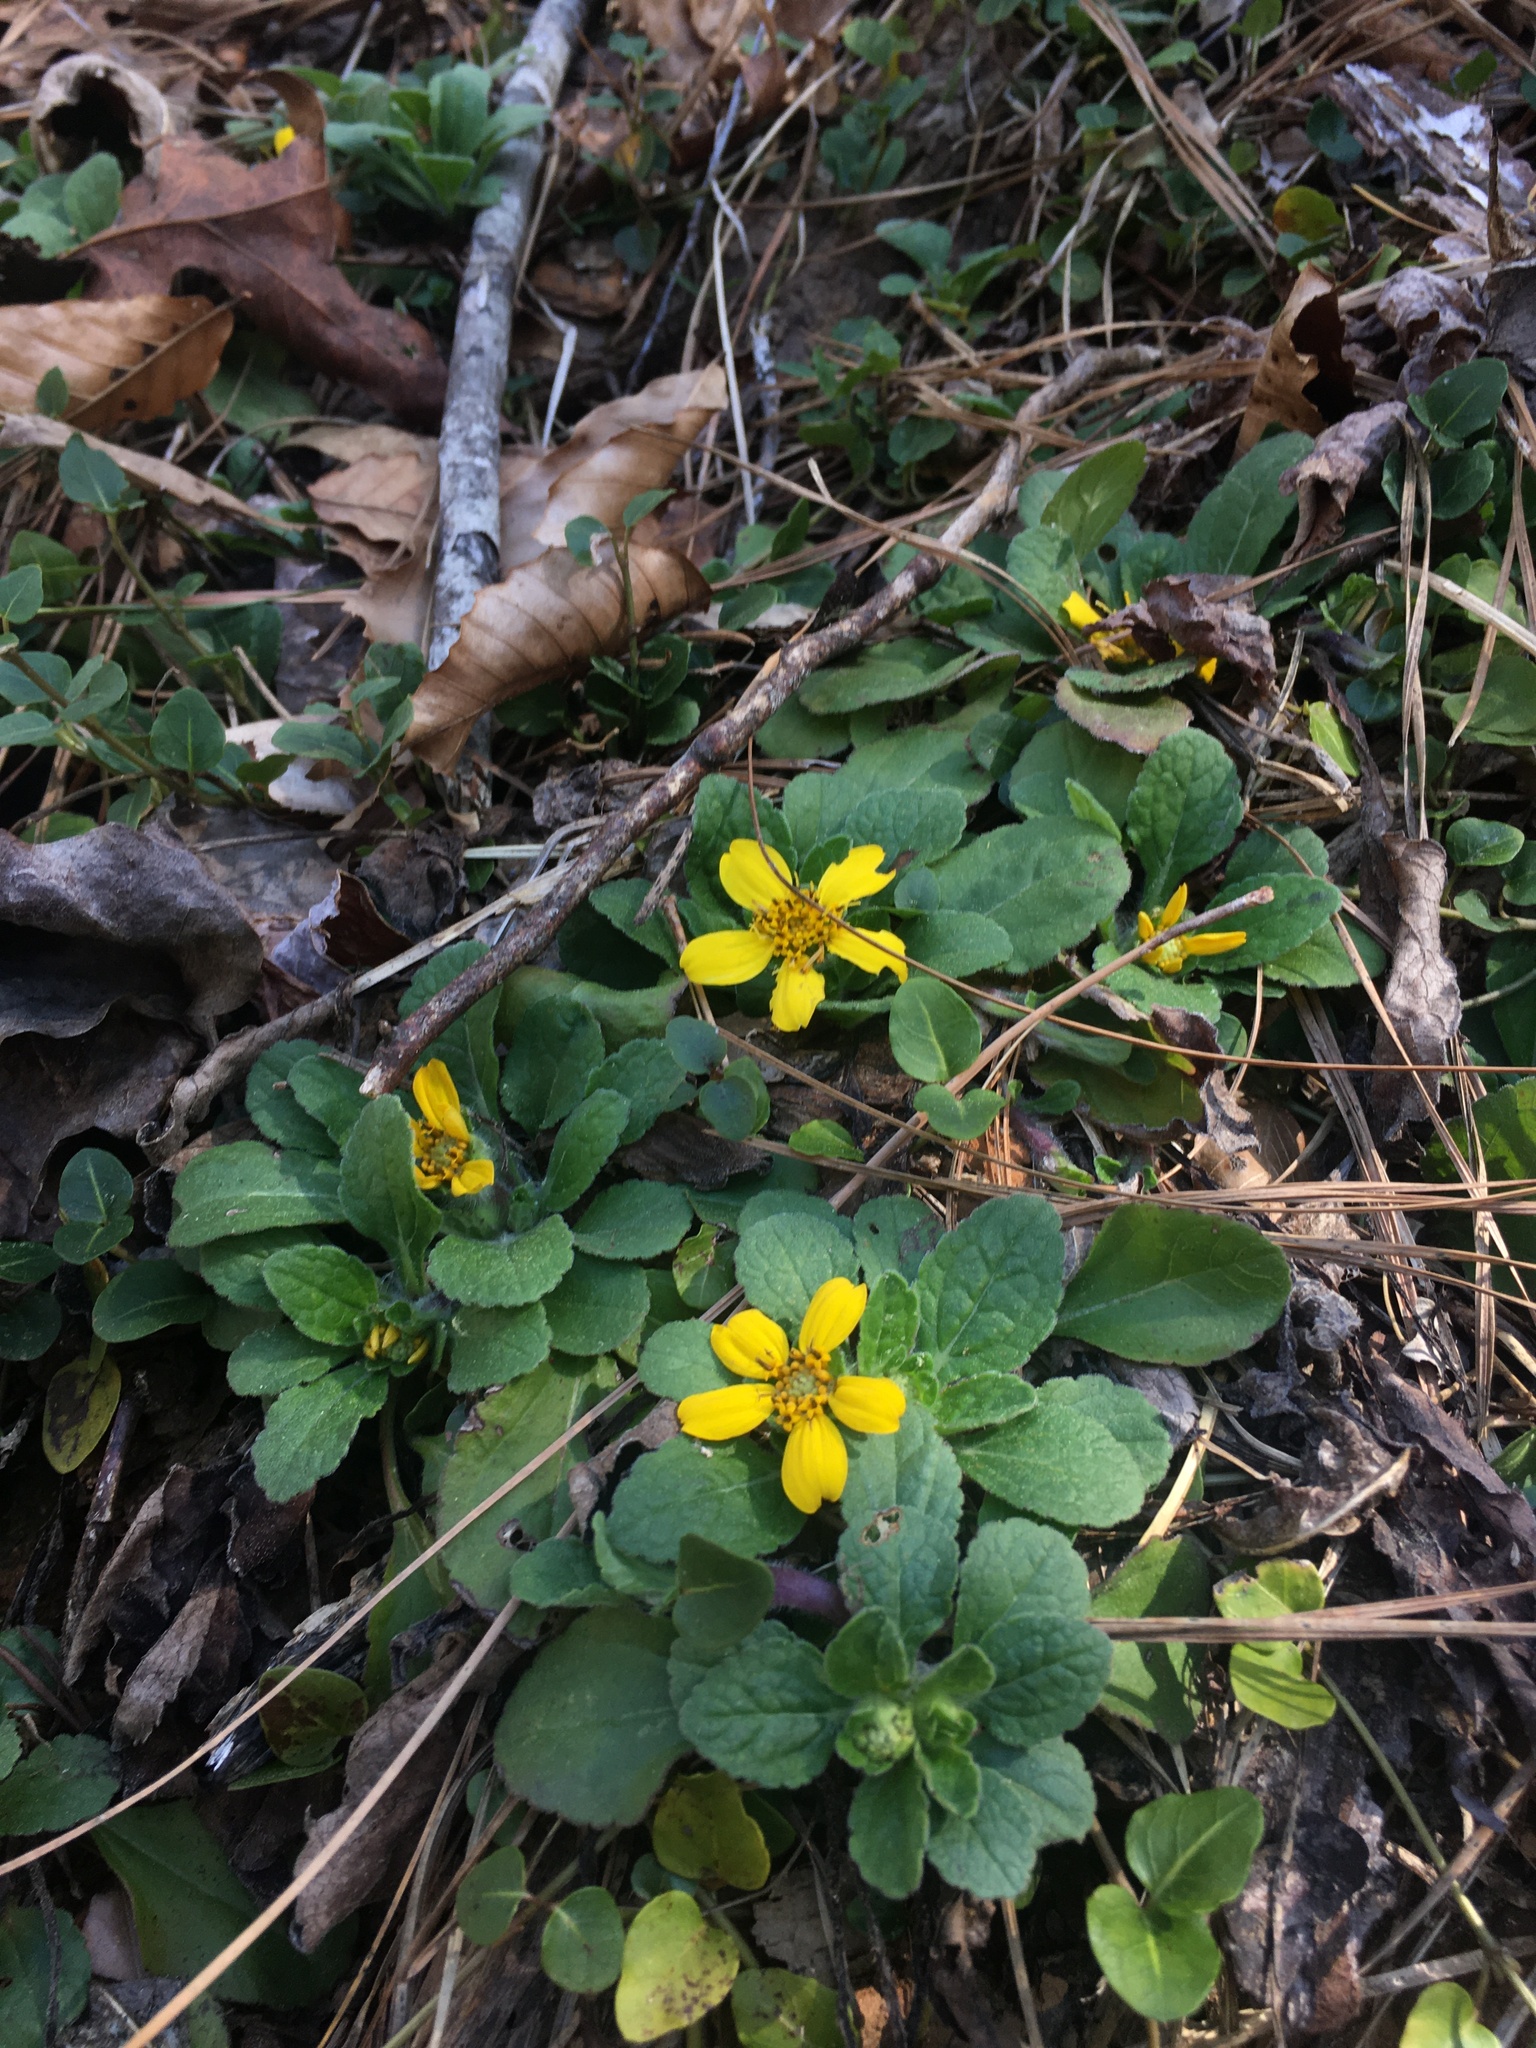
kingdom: Plantae
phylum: Tracheophyta
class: Magnoliopsida
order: Asterales
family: Asteraceae
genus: Chrysogonum
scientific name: Chrysogonum virginianum
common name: Golden-knee
